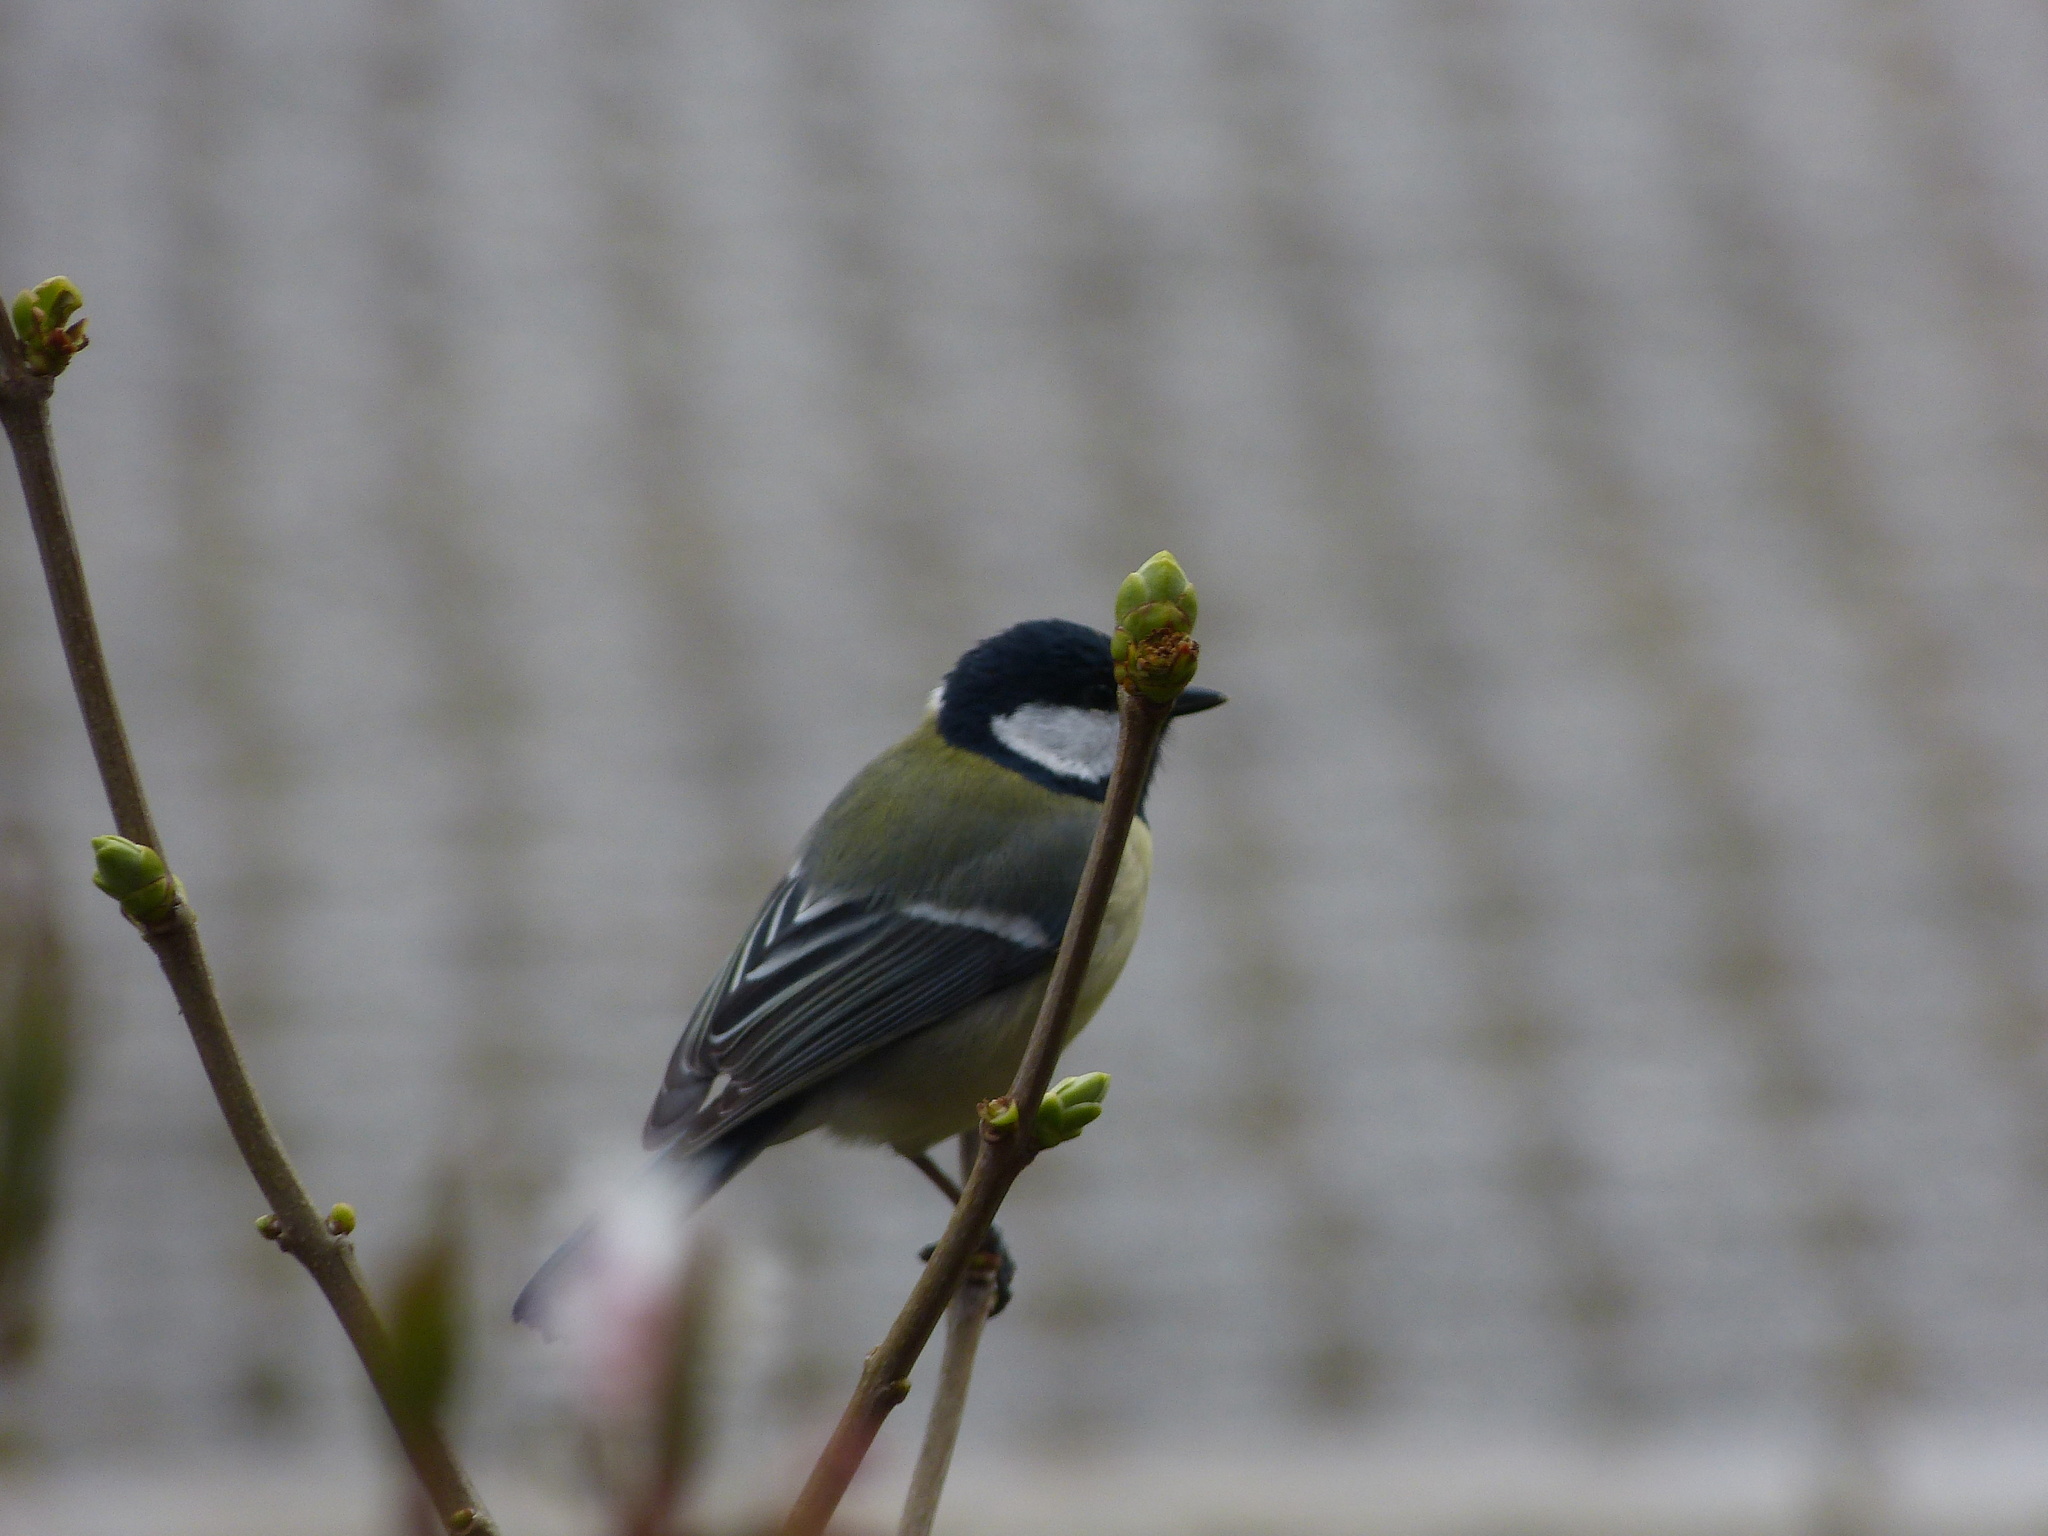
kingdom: Animalia
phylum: Chordata
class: Aves
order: Passeriformes
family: Paridae
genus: Parus
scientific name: Parus major
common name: Great tit
